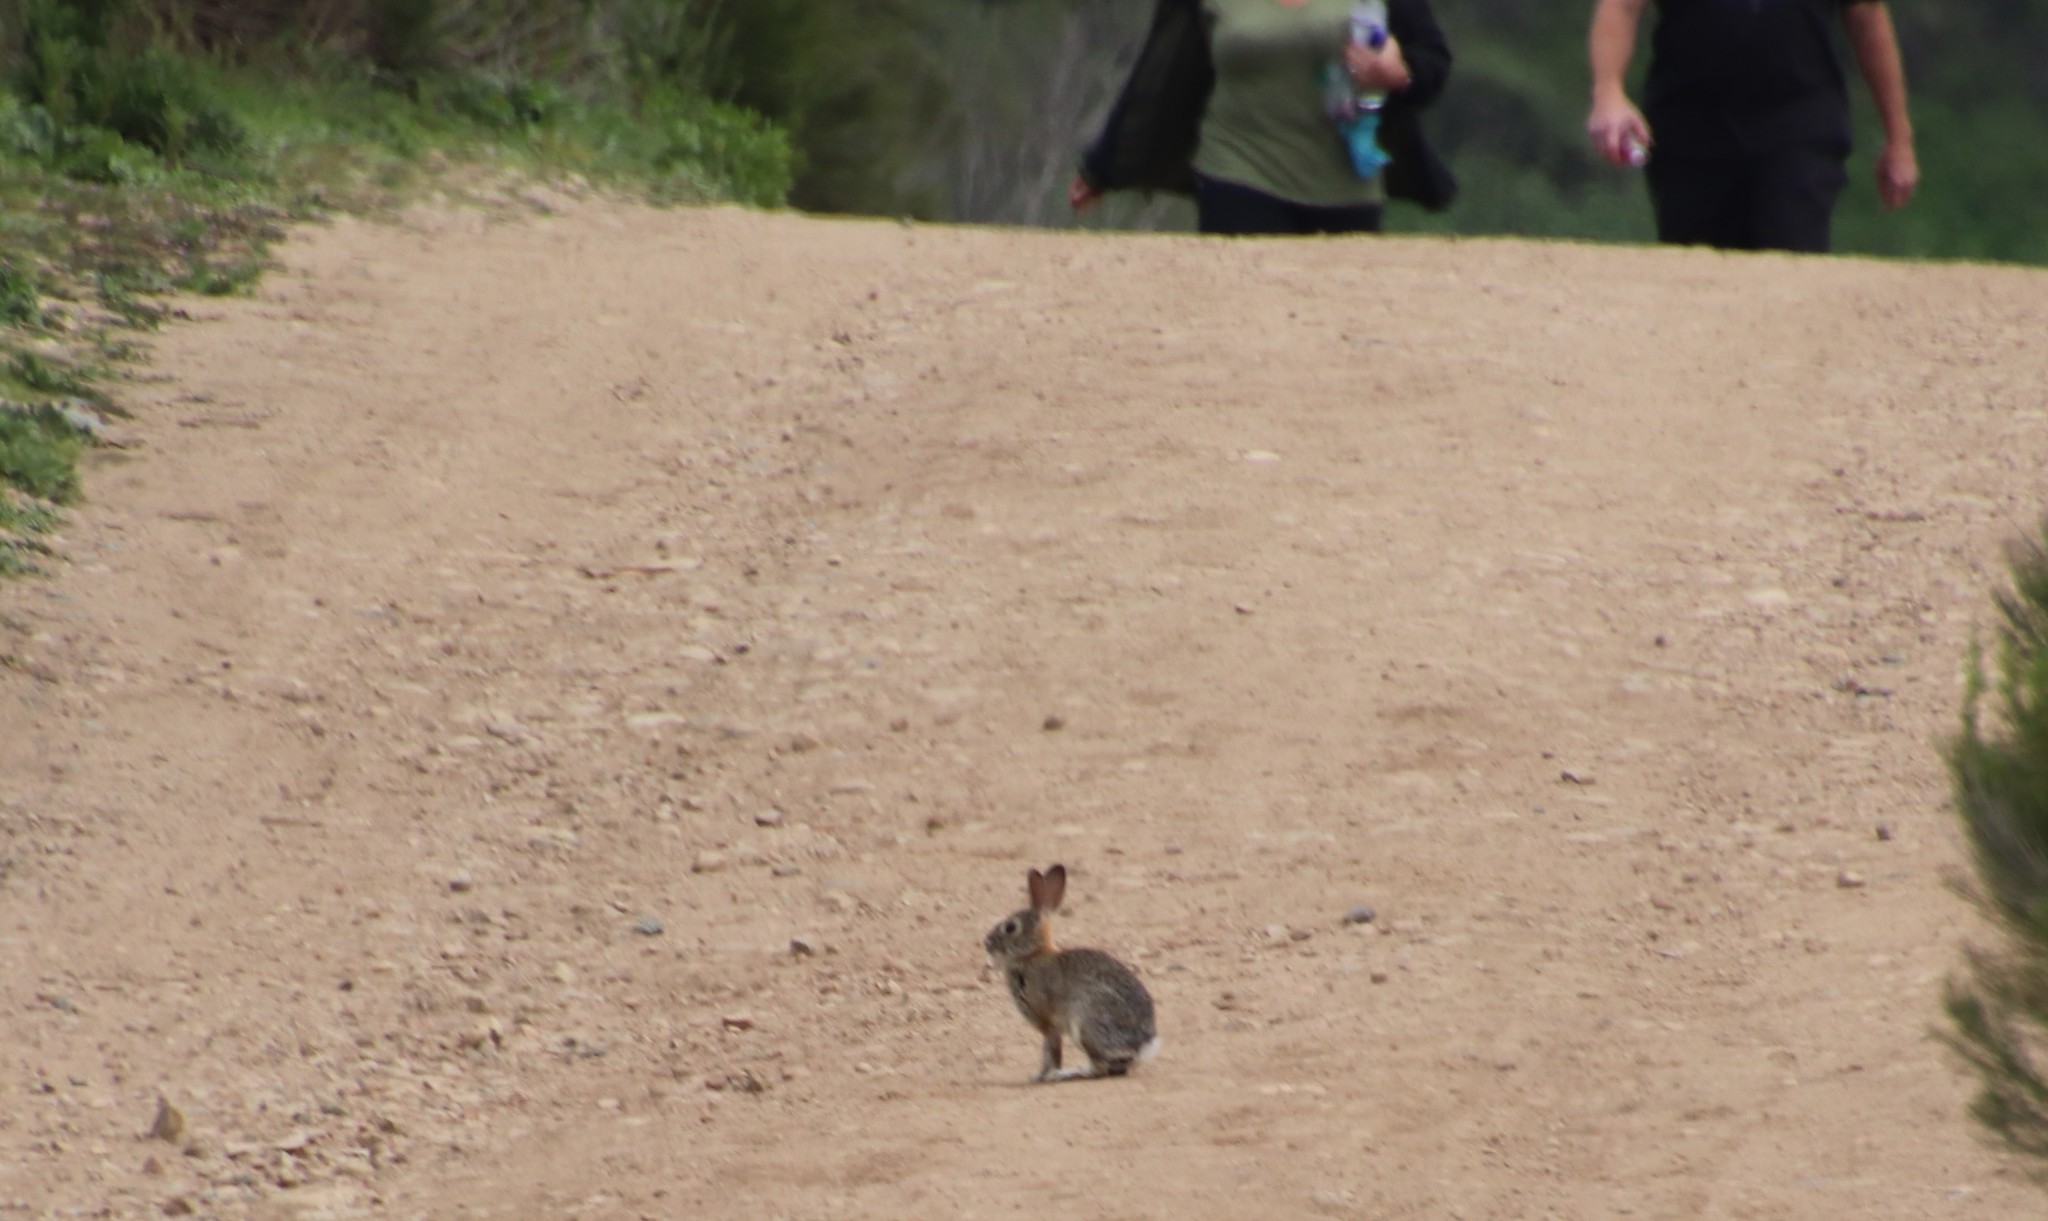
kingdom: Animalia
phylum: Chordata
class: Mammalia
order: Lagomorpha
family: Leporidae
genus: Sylvilagus
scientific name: Sylvilagus audubonii
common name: Desert cottontail
